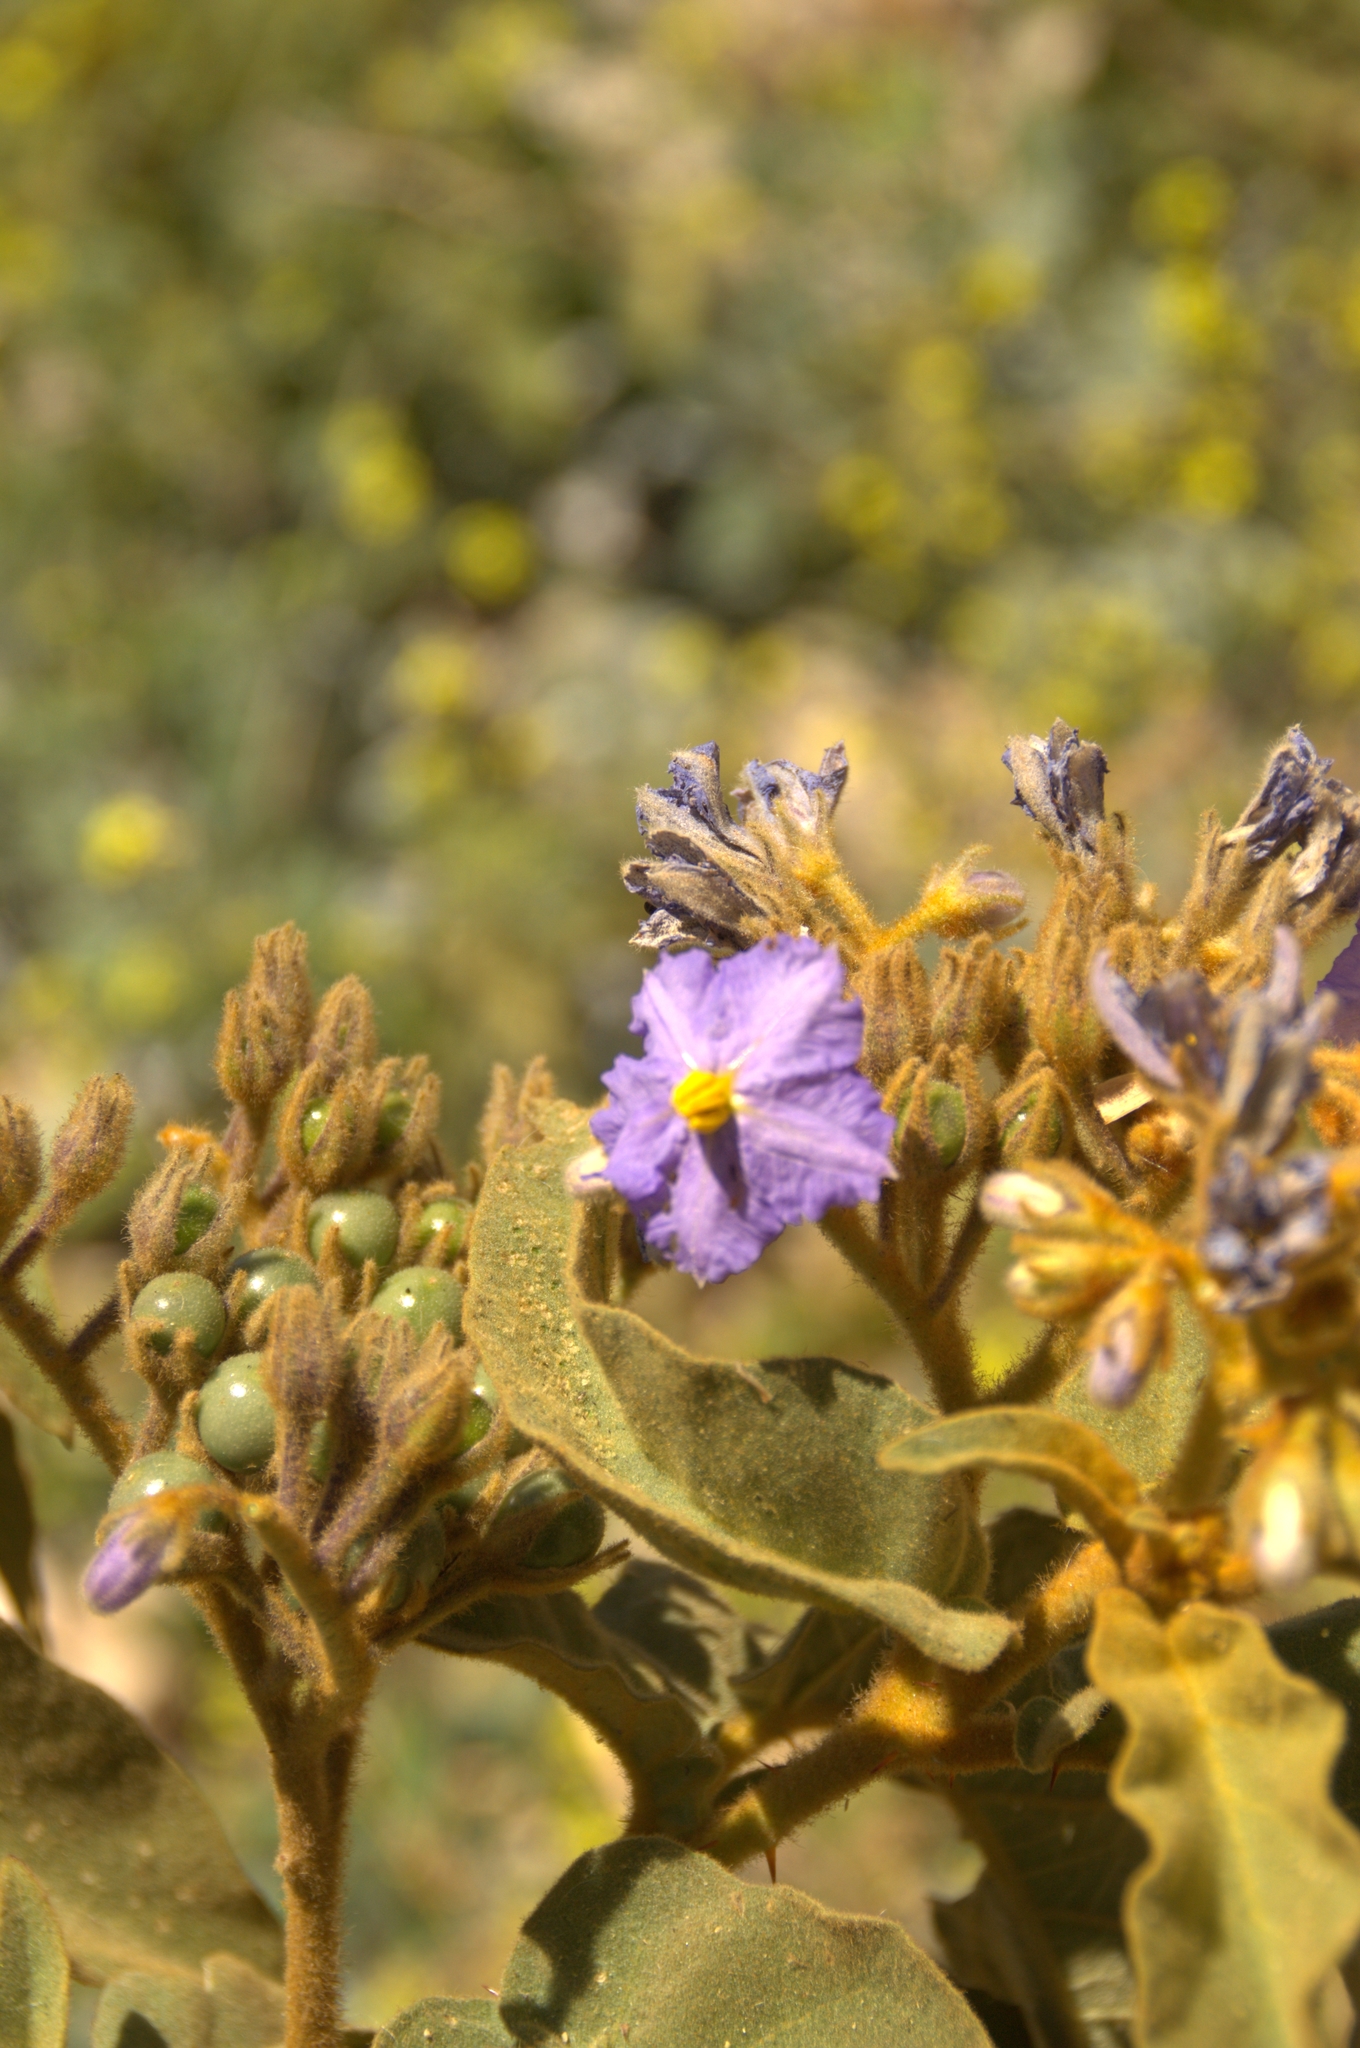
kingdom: Plantae
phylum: Tracheophyta
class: Magnoliopsida
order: Solanales
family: Solanaceae
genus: Solanum
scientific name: Solanum glutinosum
